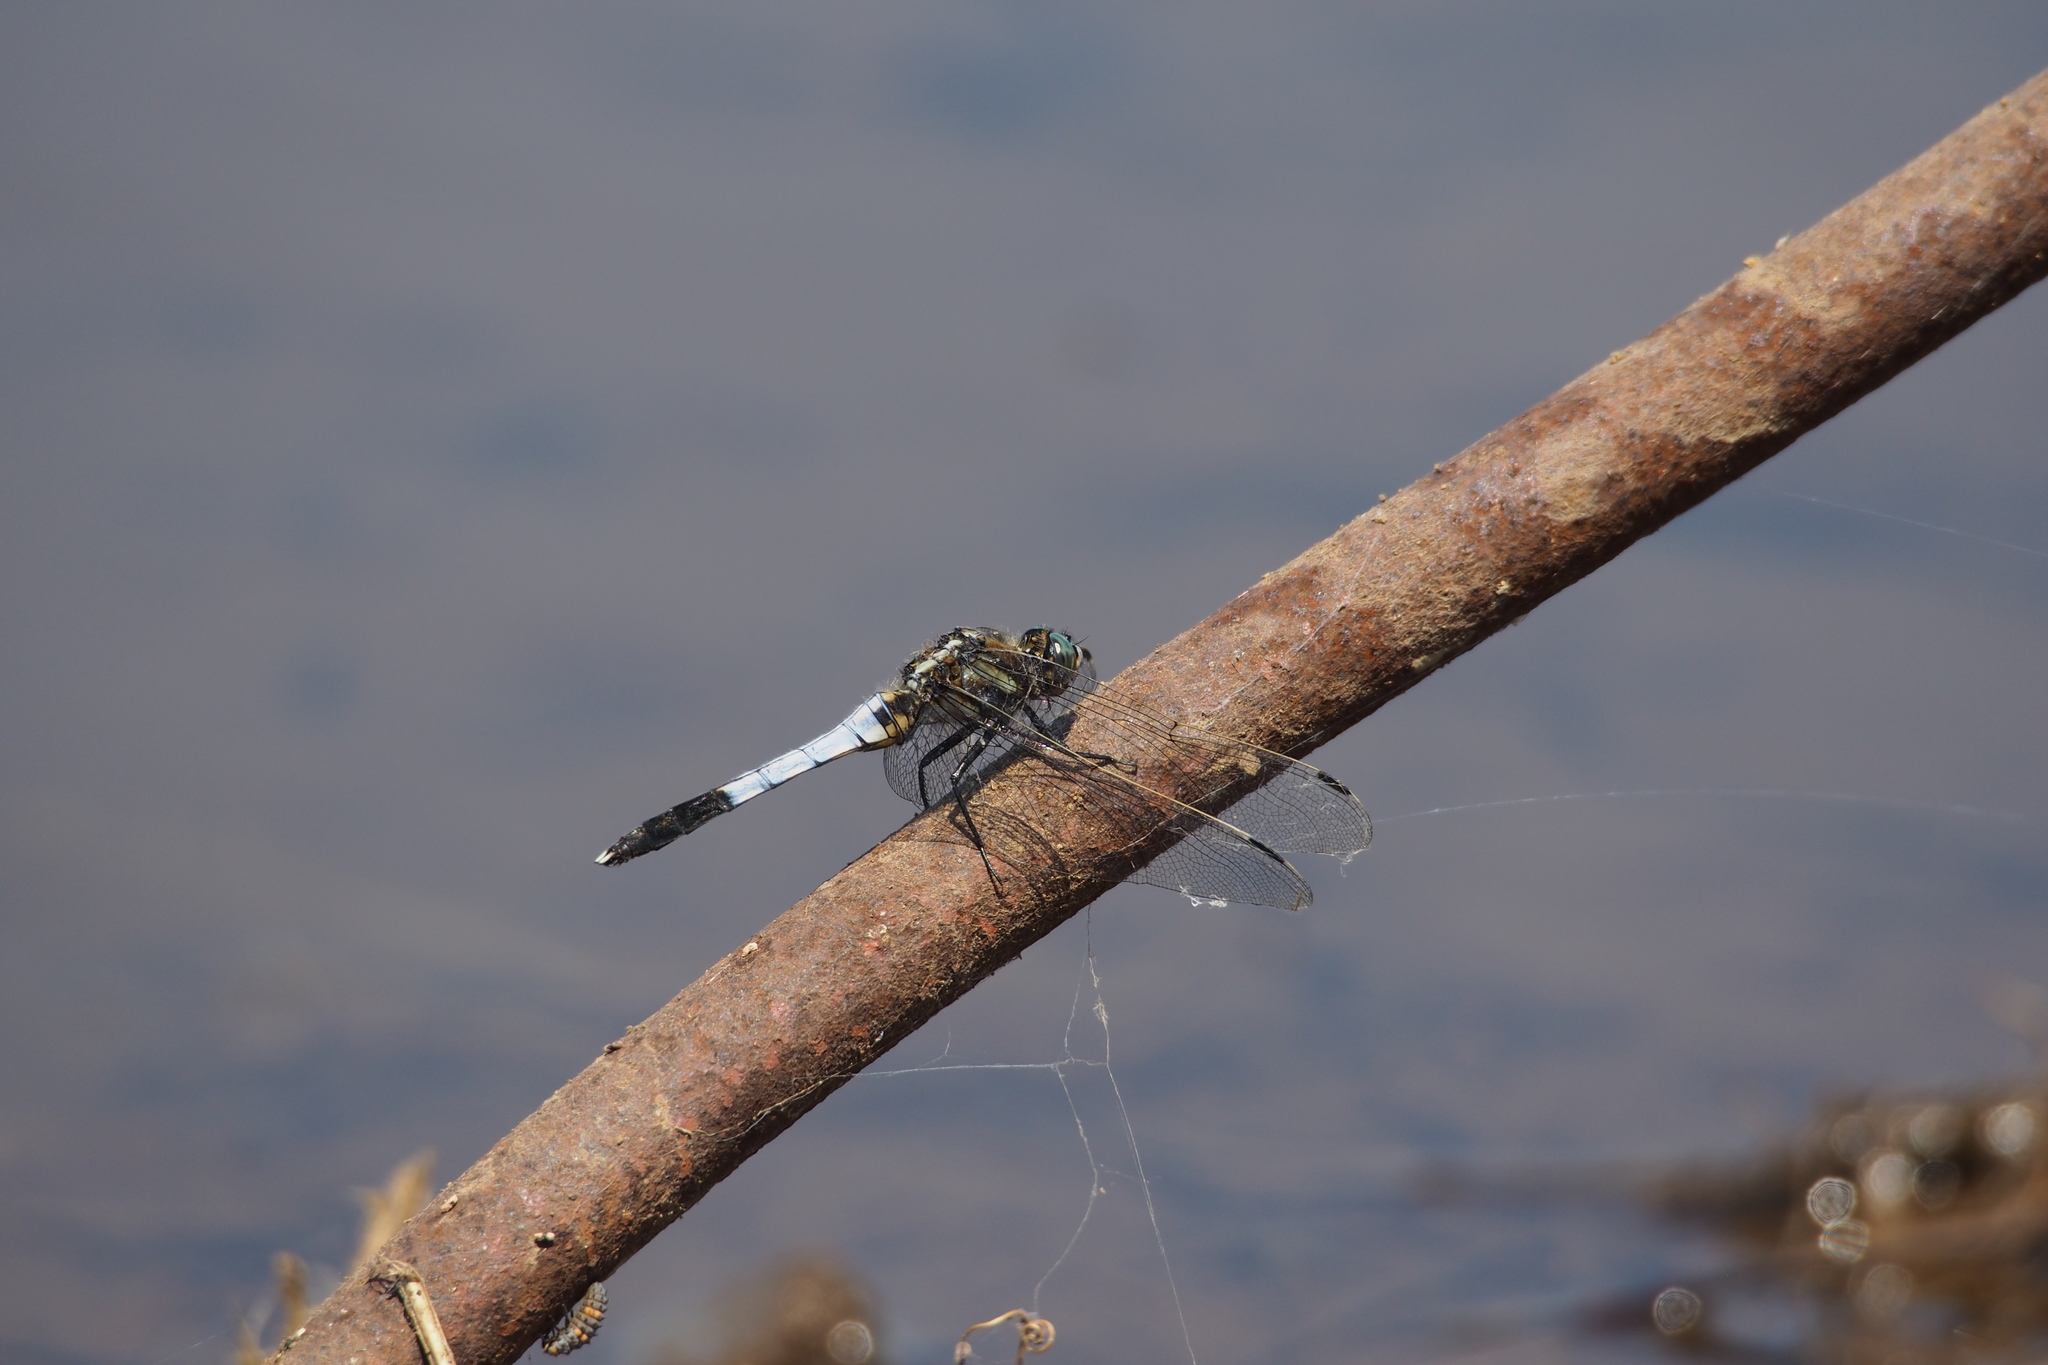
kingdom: Animalia
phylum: Arthropoda
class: Insecta
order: Odonata
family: Libellulidae
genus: Orthetrum
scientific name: Orthetrum albistylum
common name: White-tailed skimmer
